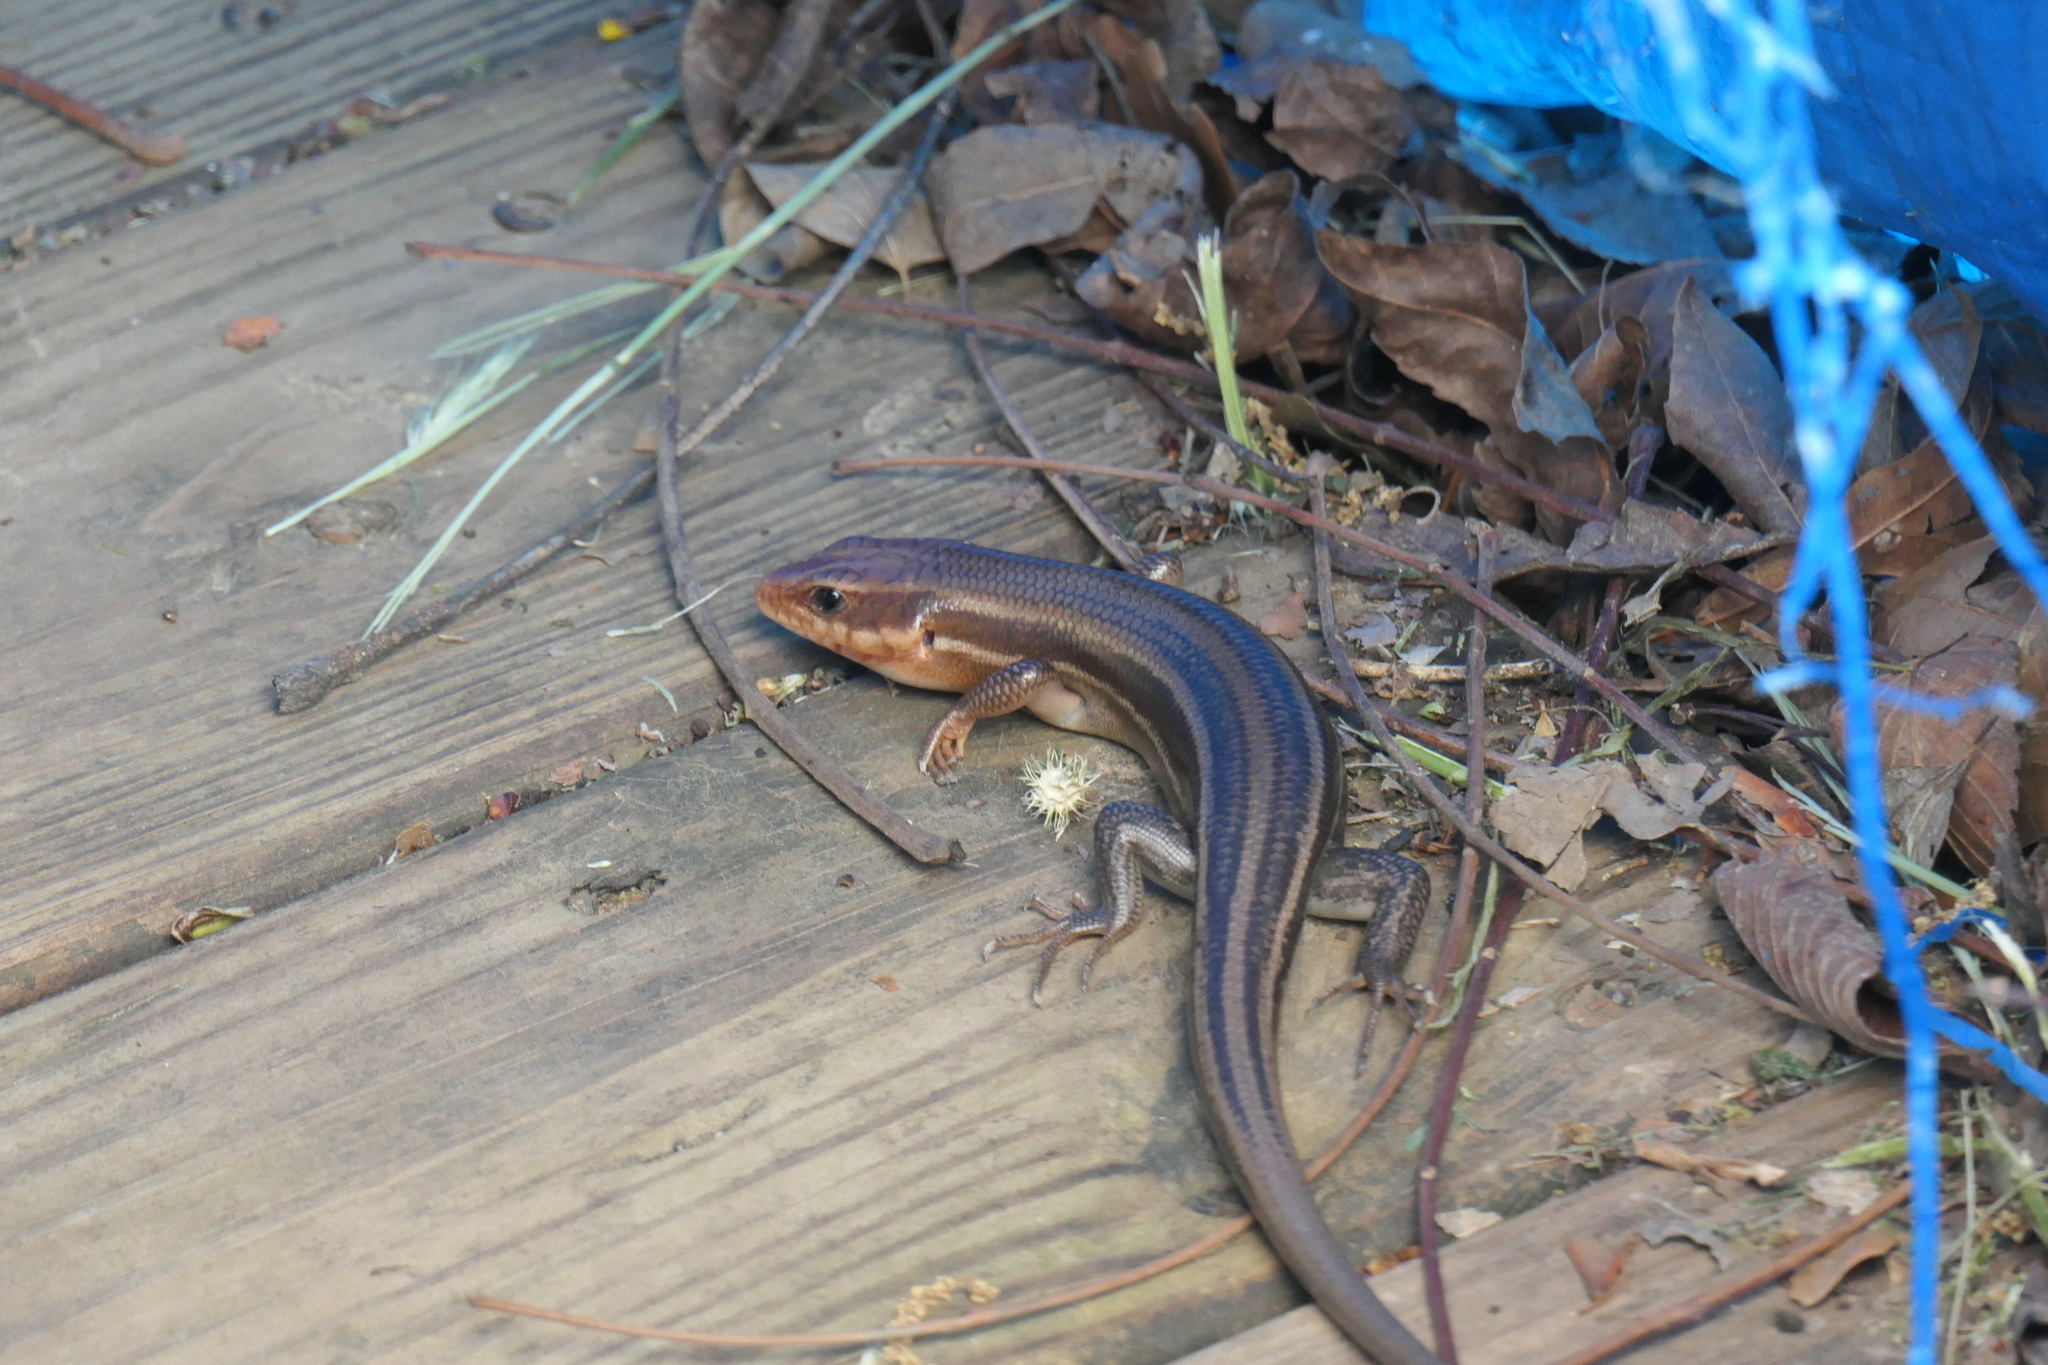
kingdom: Animalia
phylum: Chordata
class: Squamata
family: Scincidae
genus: Plestiodon
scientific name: Plestiodon laticeps
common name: Broadhead skink
